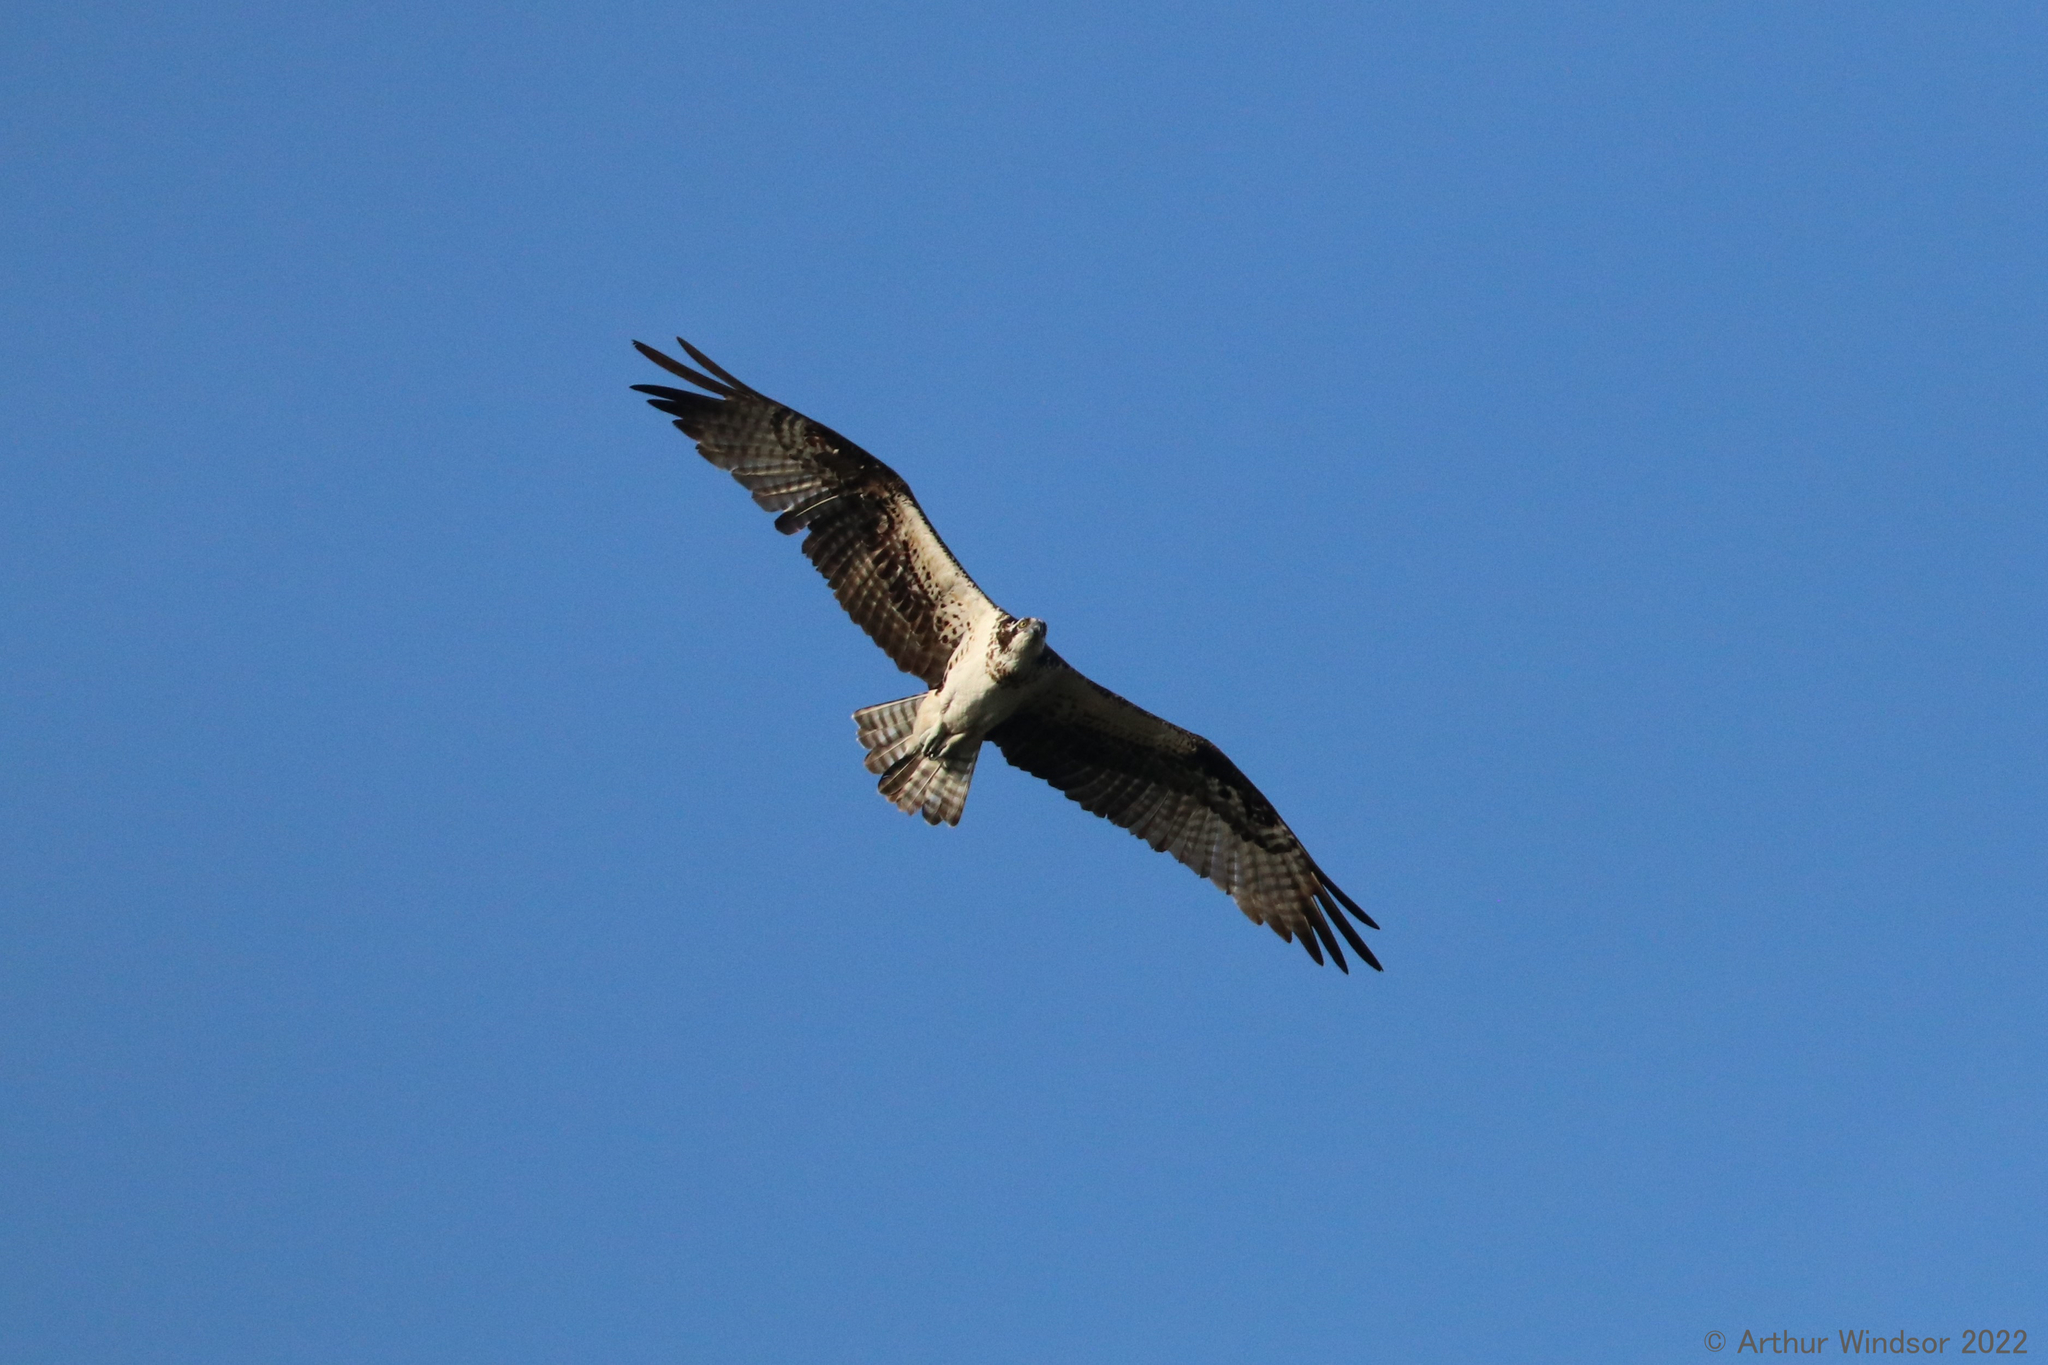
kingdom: Animalia
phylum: Chordata
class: Aves
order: Accipitriformes
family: Pandionidae
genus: Pandion
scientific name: Pandion haliaetus
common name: Osprey
